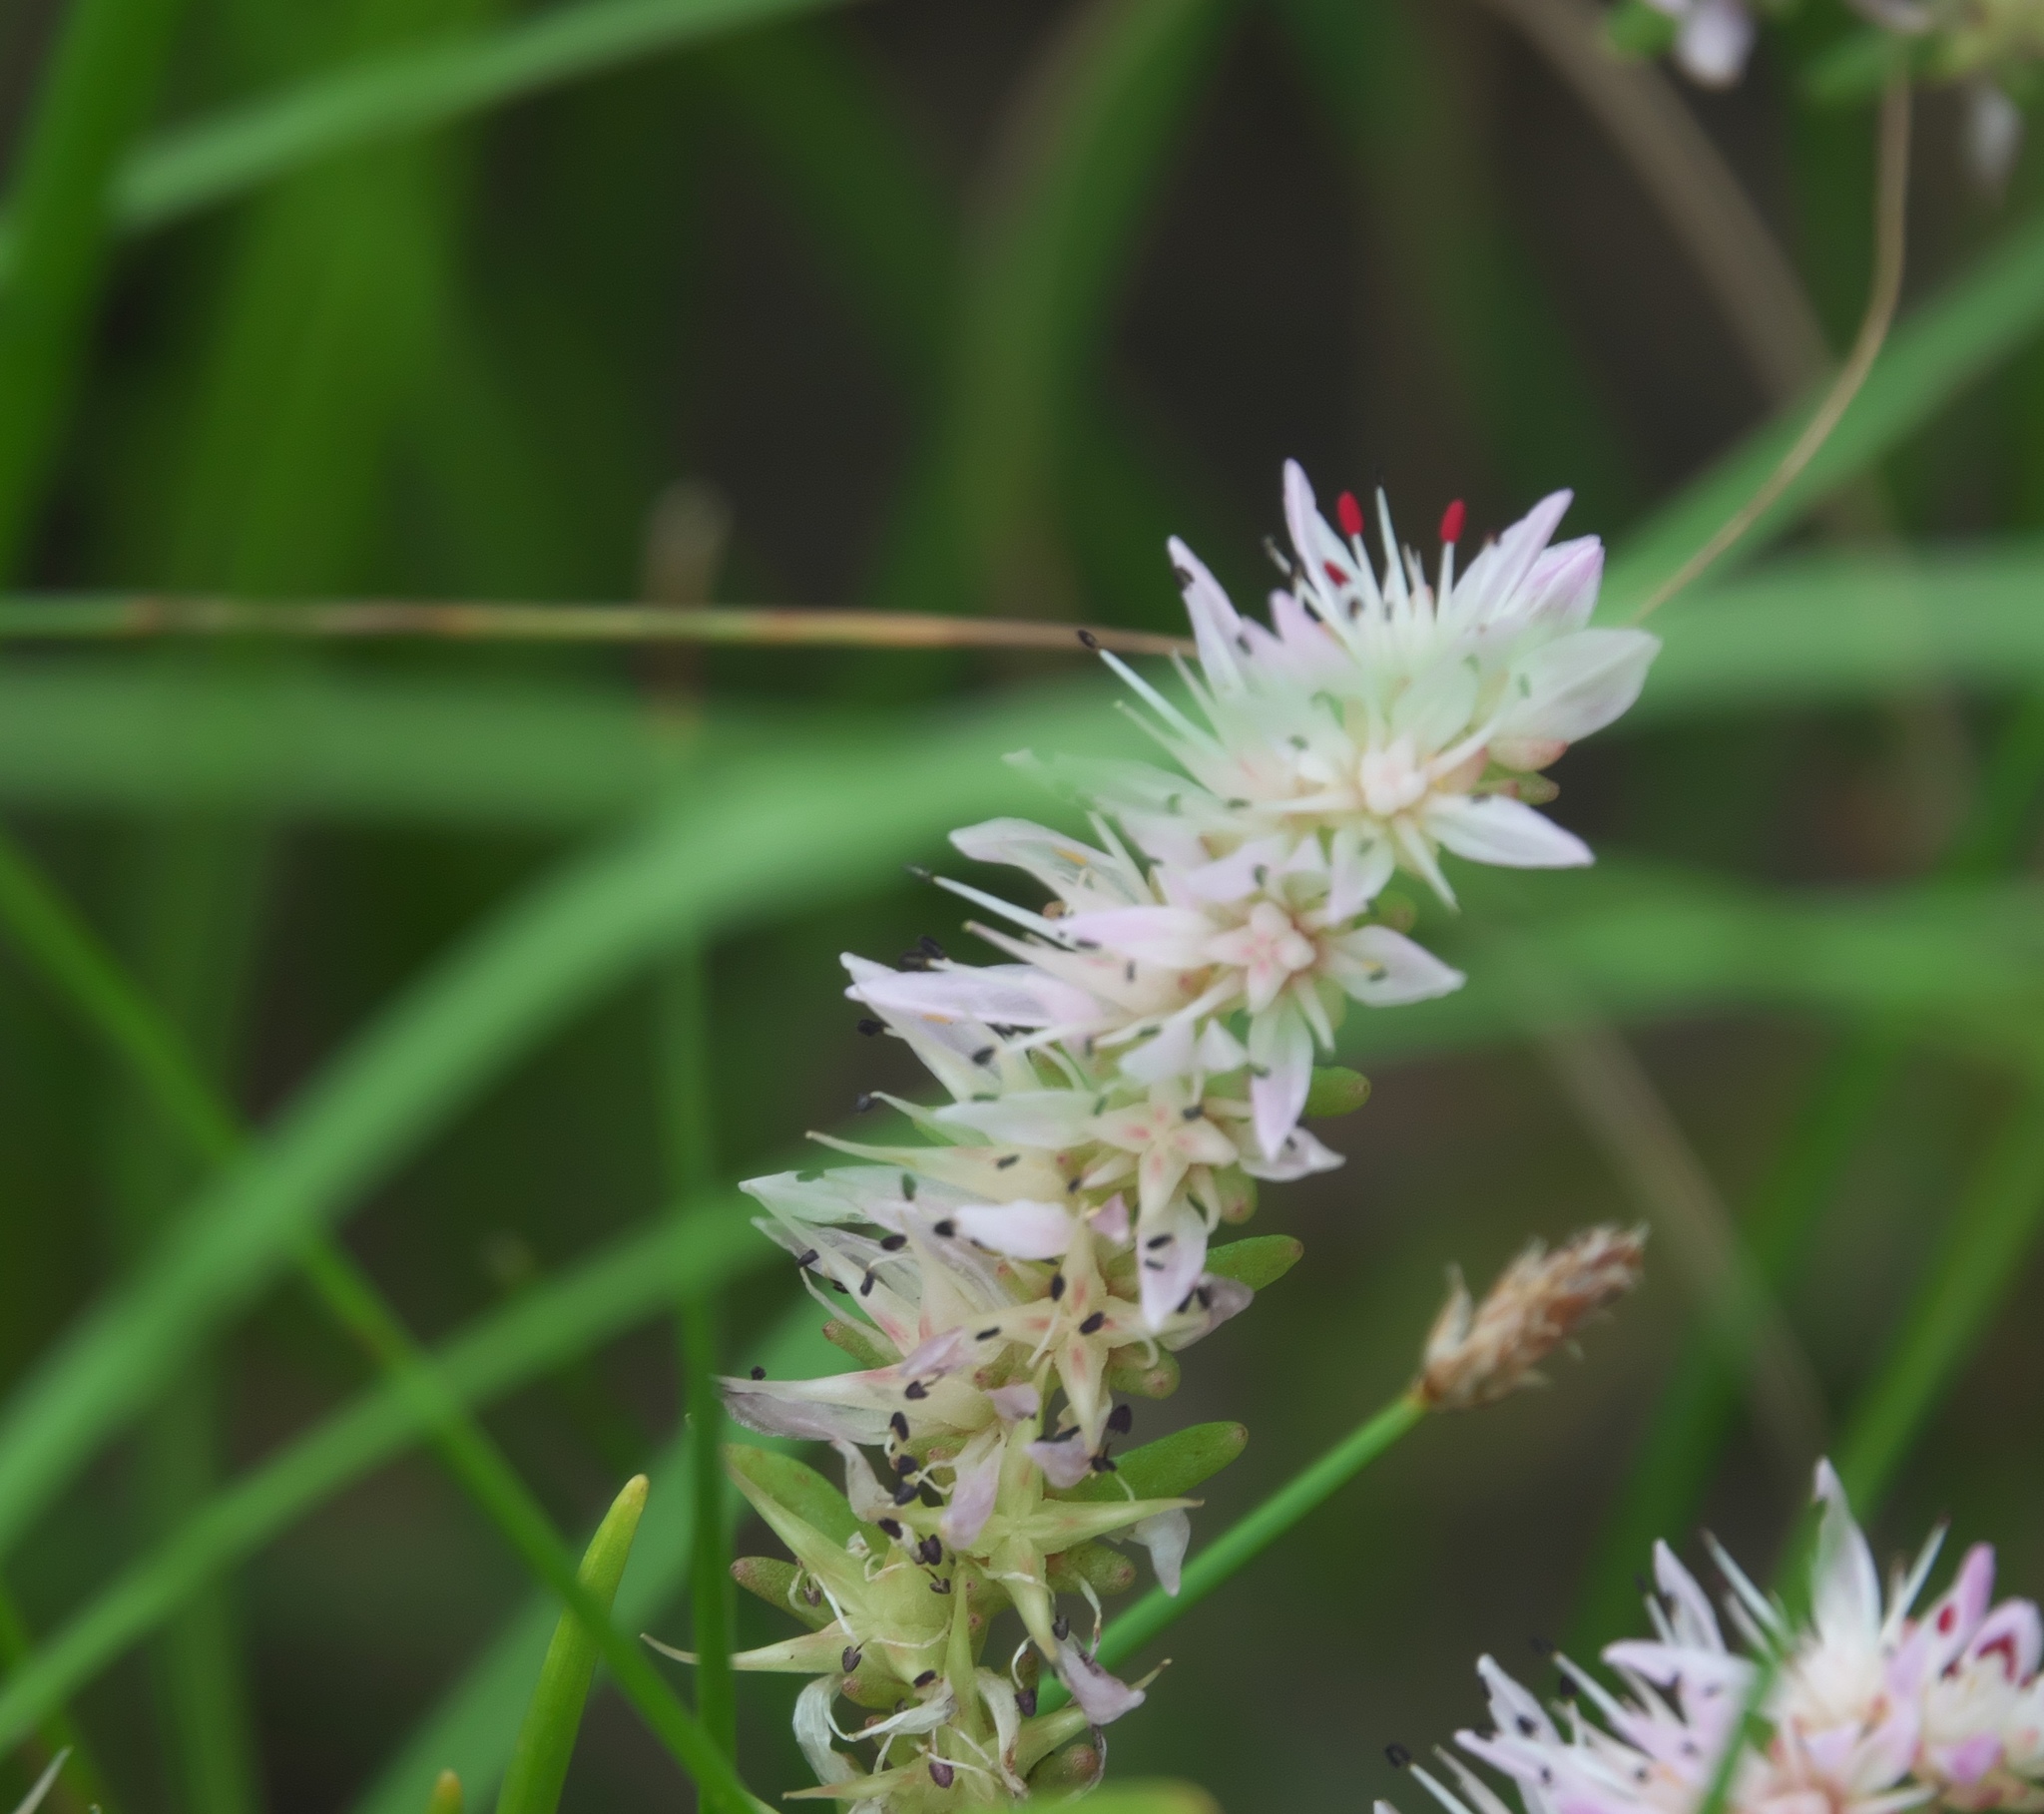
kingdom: Plantae
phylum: Tracheophyta
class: Magnoliopsida
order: Saxifragales
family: Crassulaceae
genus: Sedum
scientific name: Sedum pulchellum
